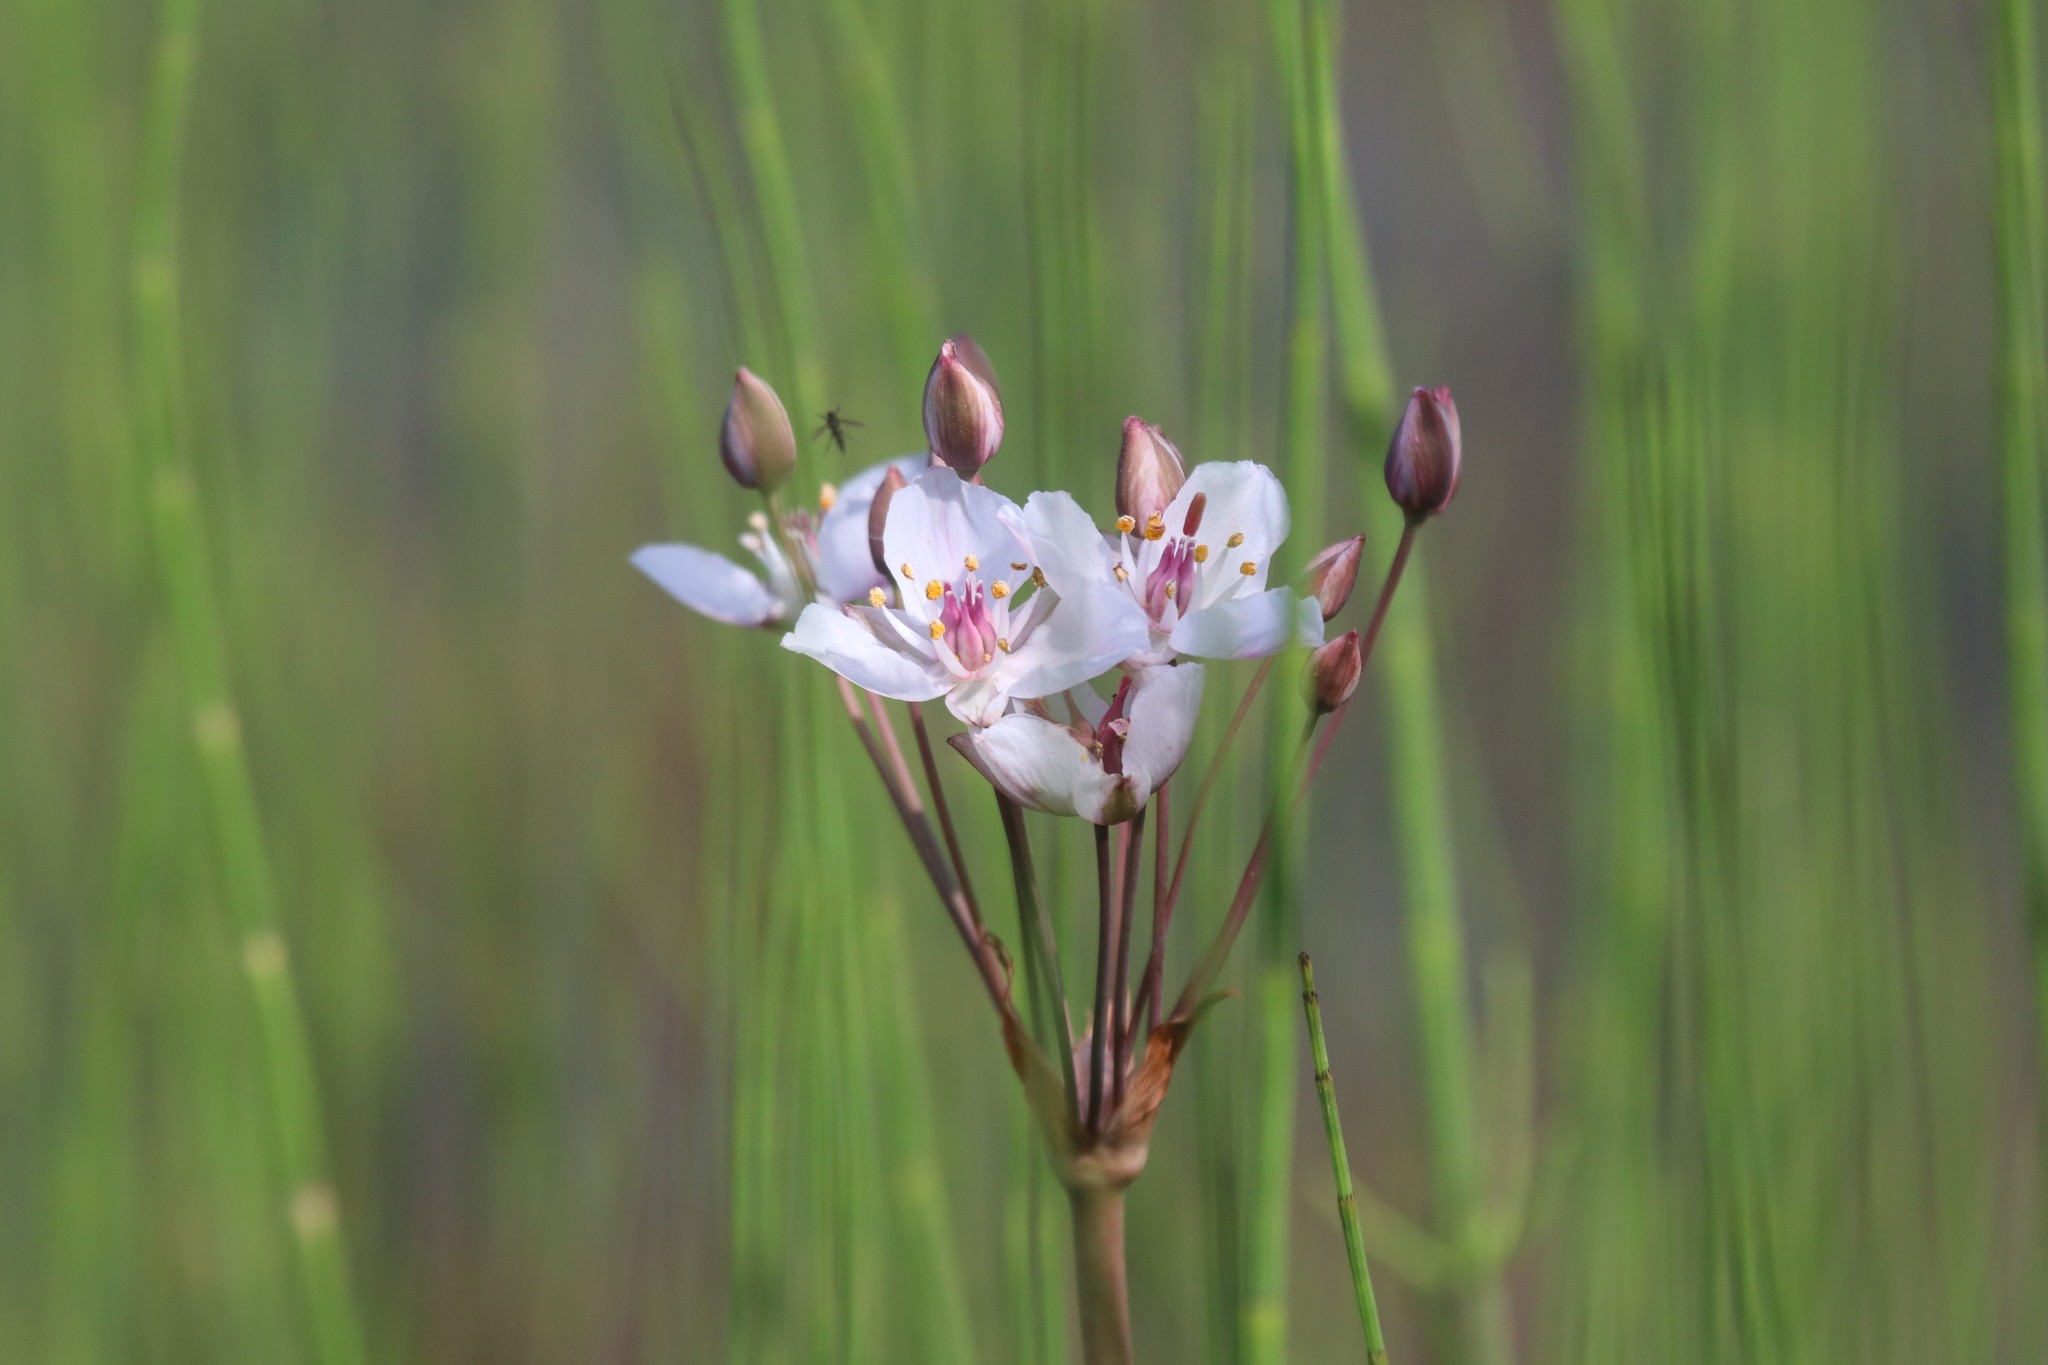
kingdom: Plantae
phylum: Tracheophyta
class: Liliopsida
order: Alismatales
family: Butomaceae
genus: Butomus
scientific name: Butomus umbellatus
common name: Flowering-rush
